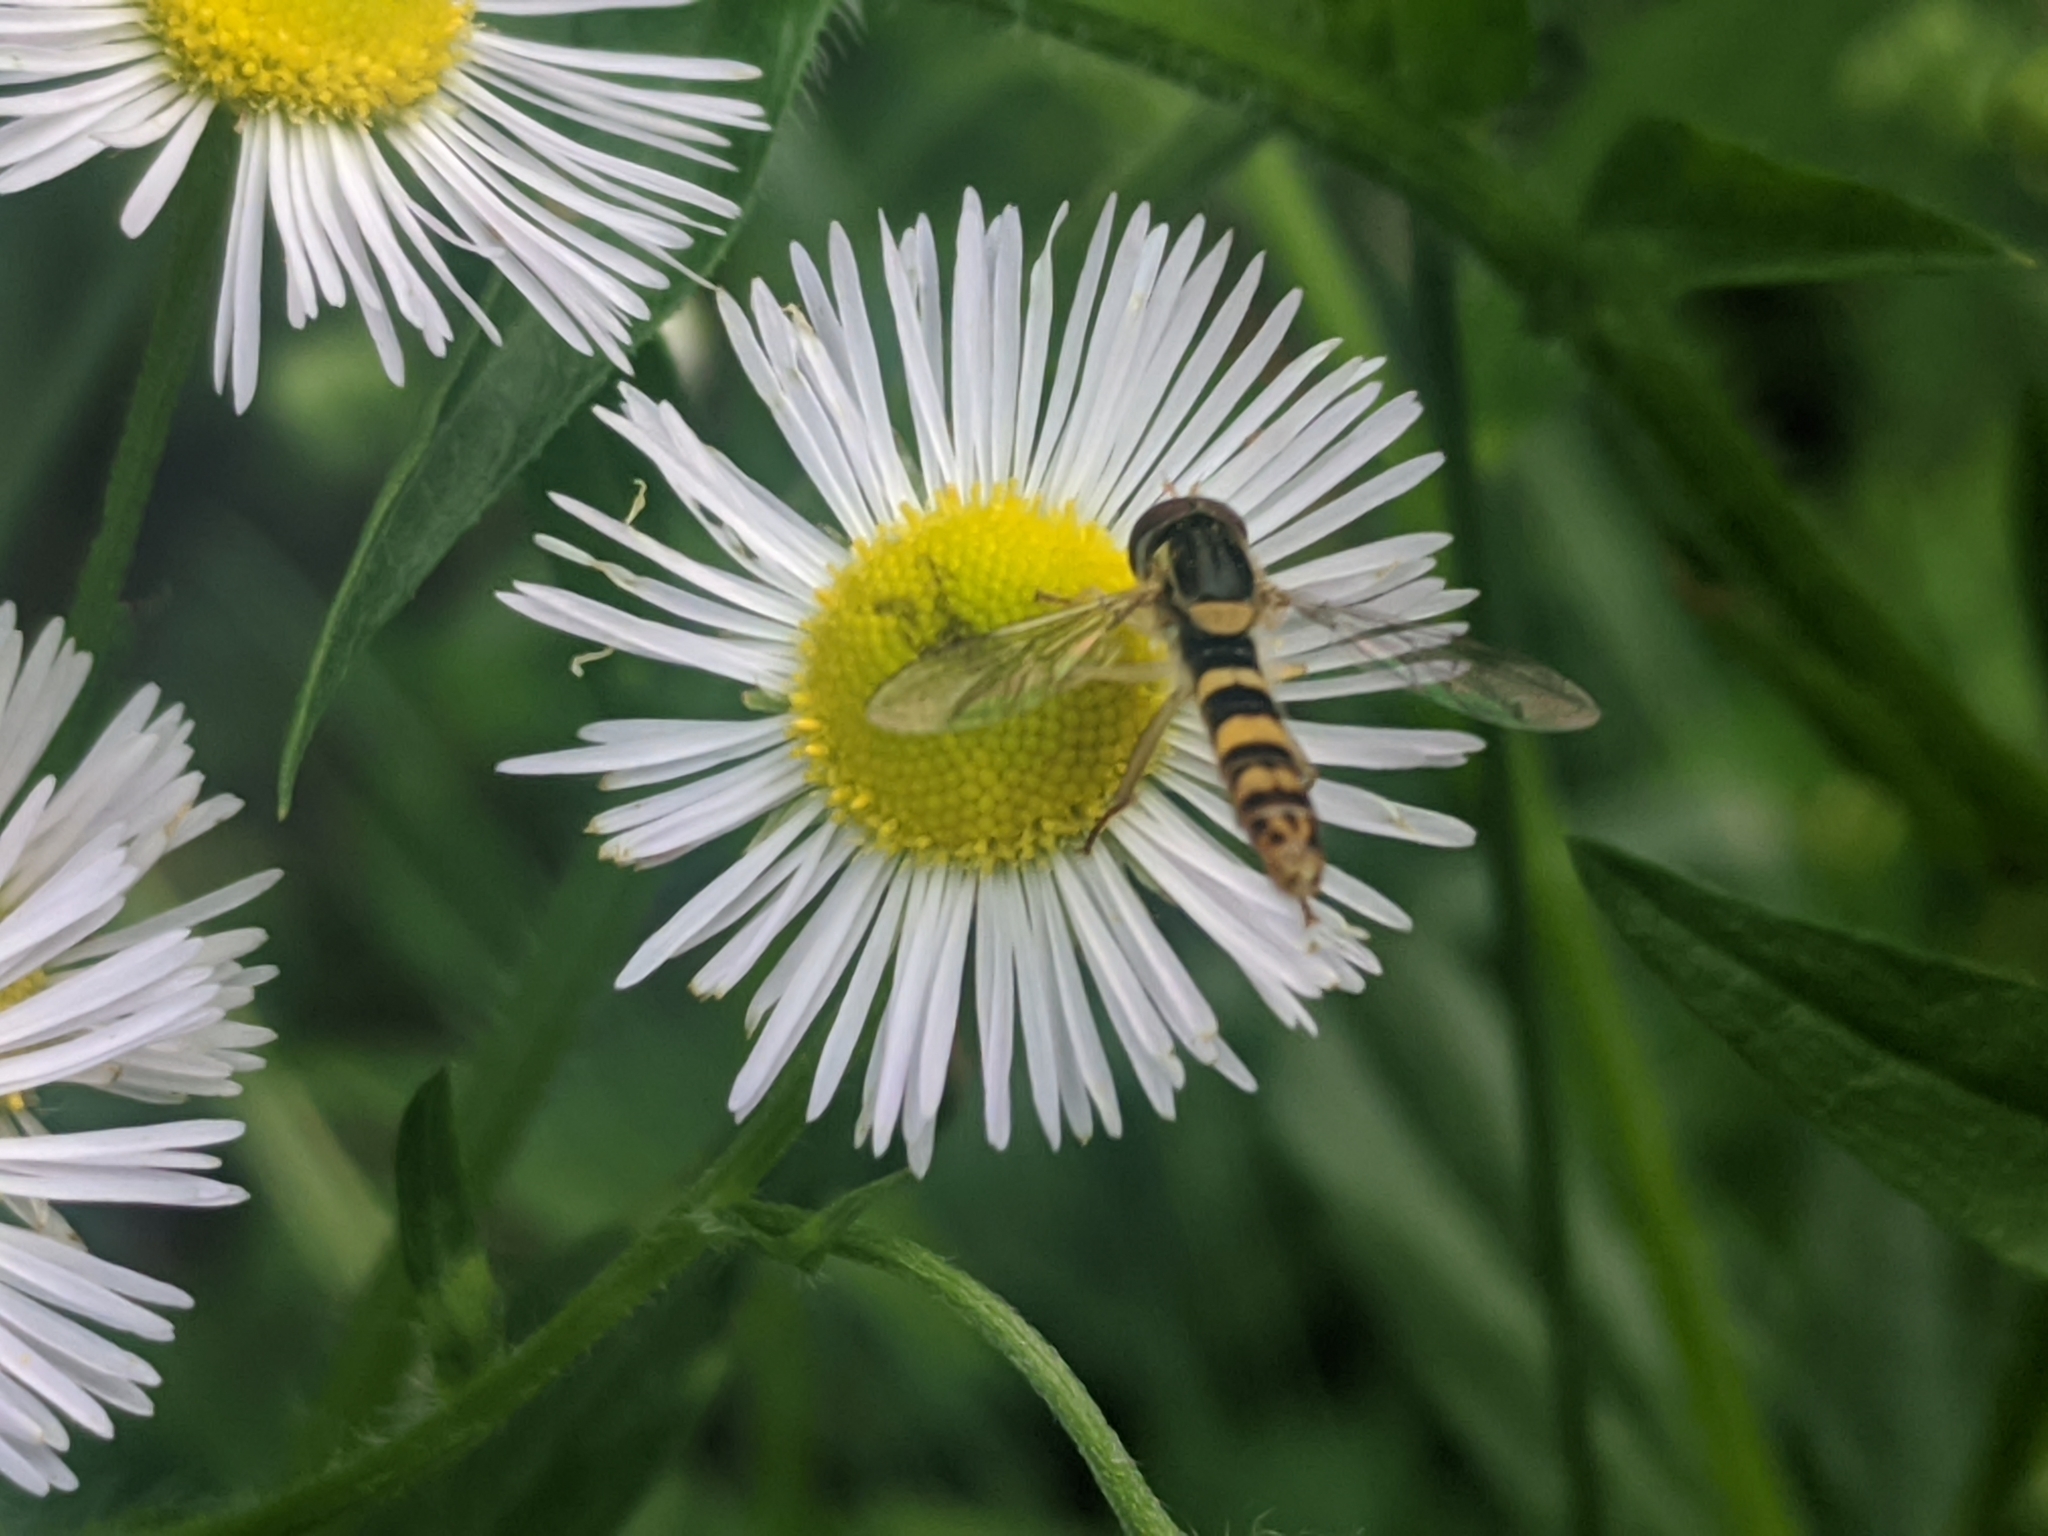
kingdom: Animalia
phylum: Arthropoda
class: Insecta
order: Diptera
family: Syrphidae
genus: Sphaerophoria
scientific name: Sphaerophoria
